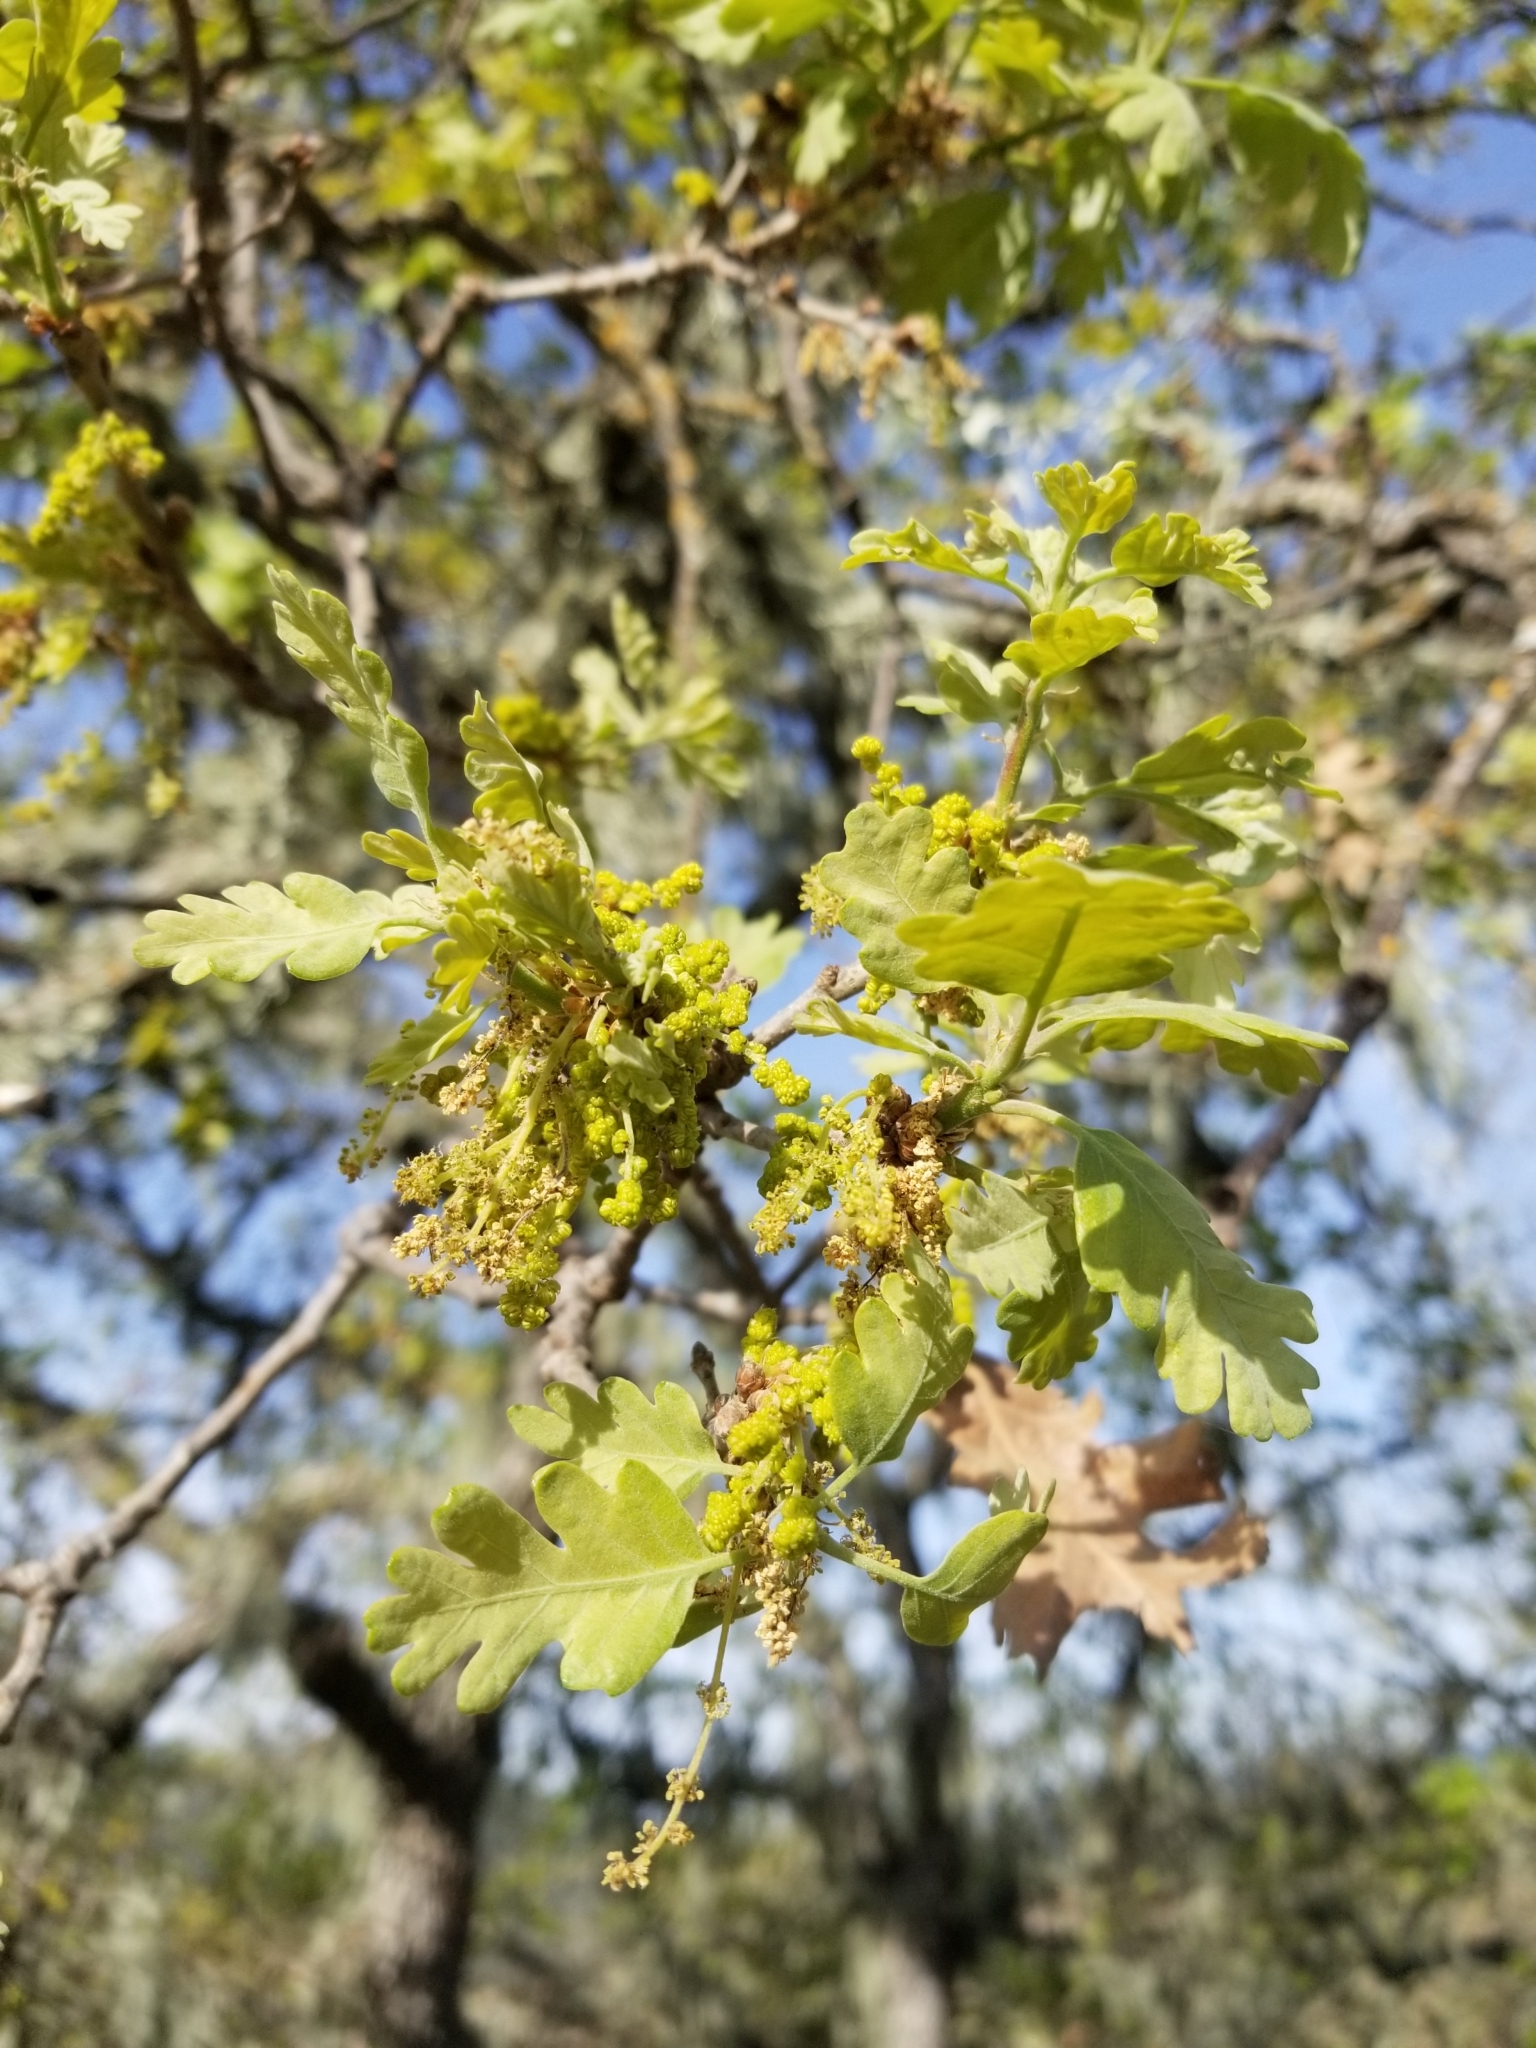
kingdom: Plantae
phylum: Tracheophyta
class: Magnoliopsida
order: Fagales
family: Fagaceae
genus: Quercus
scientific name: Quercus lobata
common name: Valley oak
